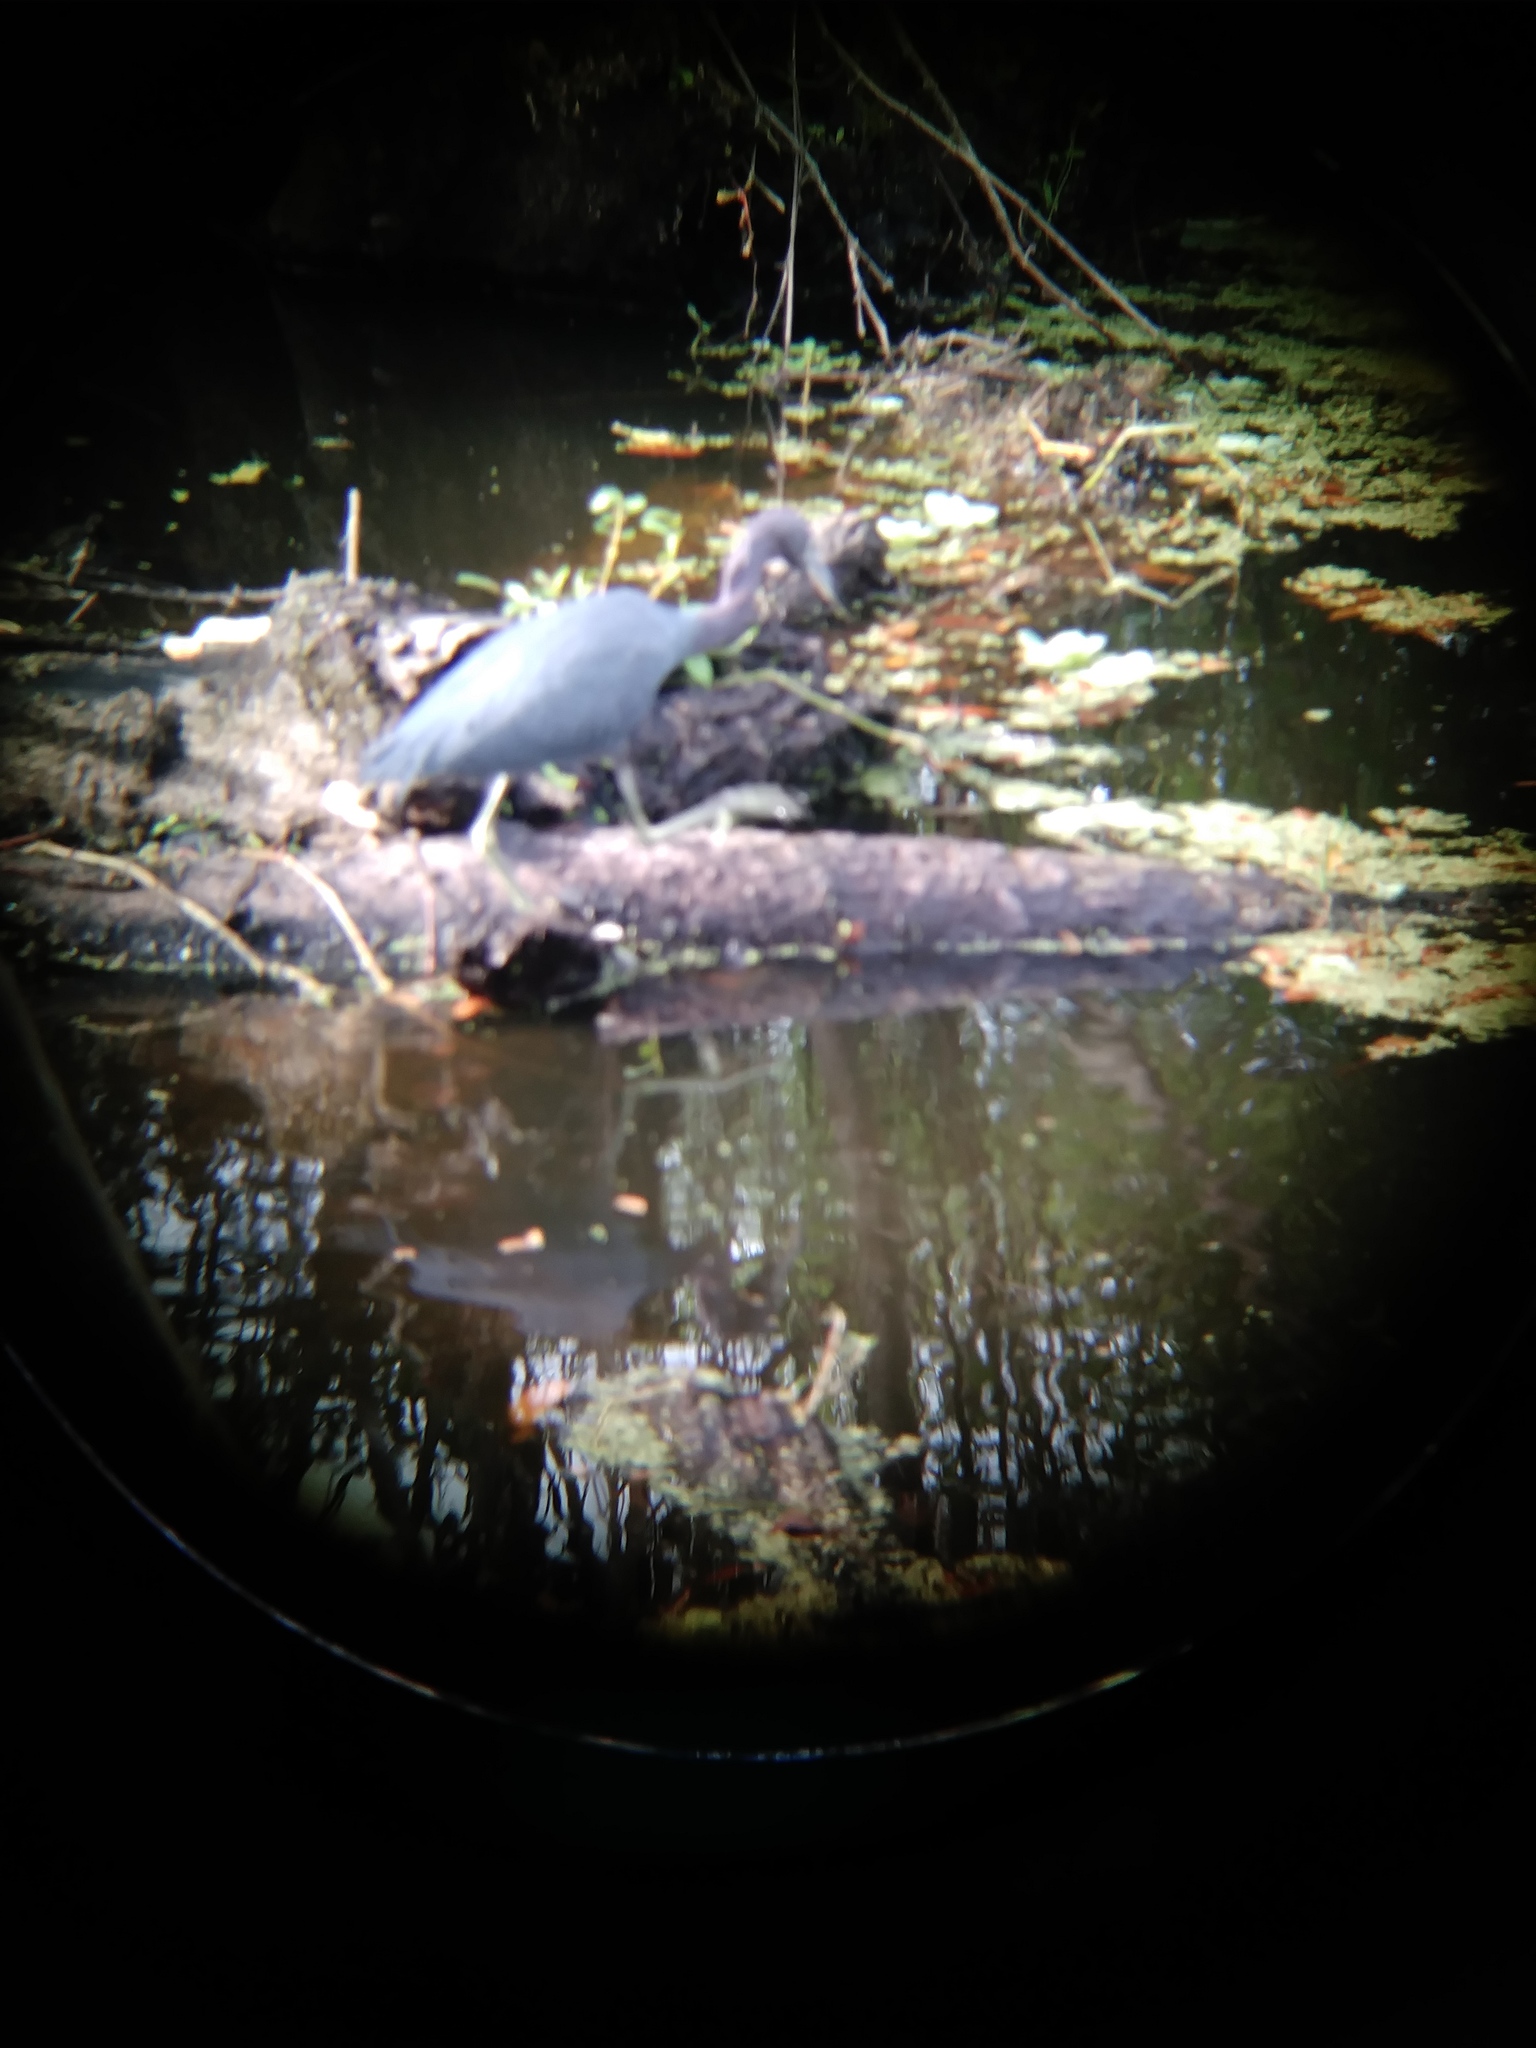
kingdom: Animalia
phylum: Chordata
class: Aves
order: Pelecaniformes
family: Ardeidae
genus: Egretta
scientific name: Egretta caerulea
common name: Little blue heron
